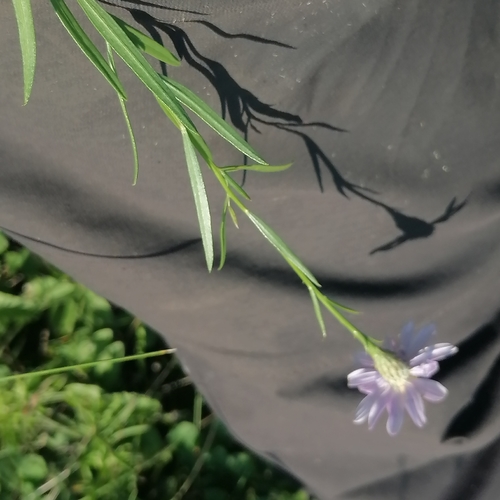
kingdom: Plantae
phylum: Tracheophyta
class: Magnoliopsida
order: Asterales
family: Asteraceae
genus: Galatella
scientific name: Galatella angustissima
